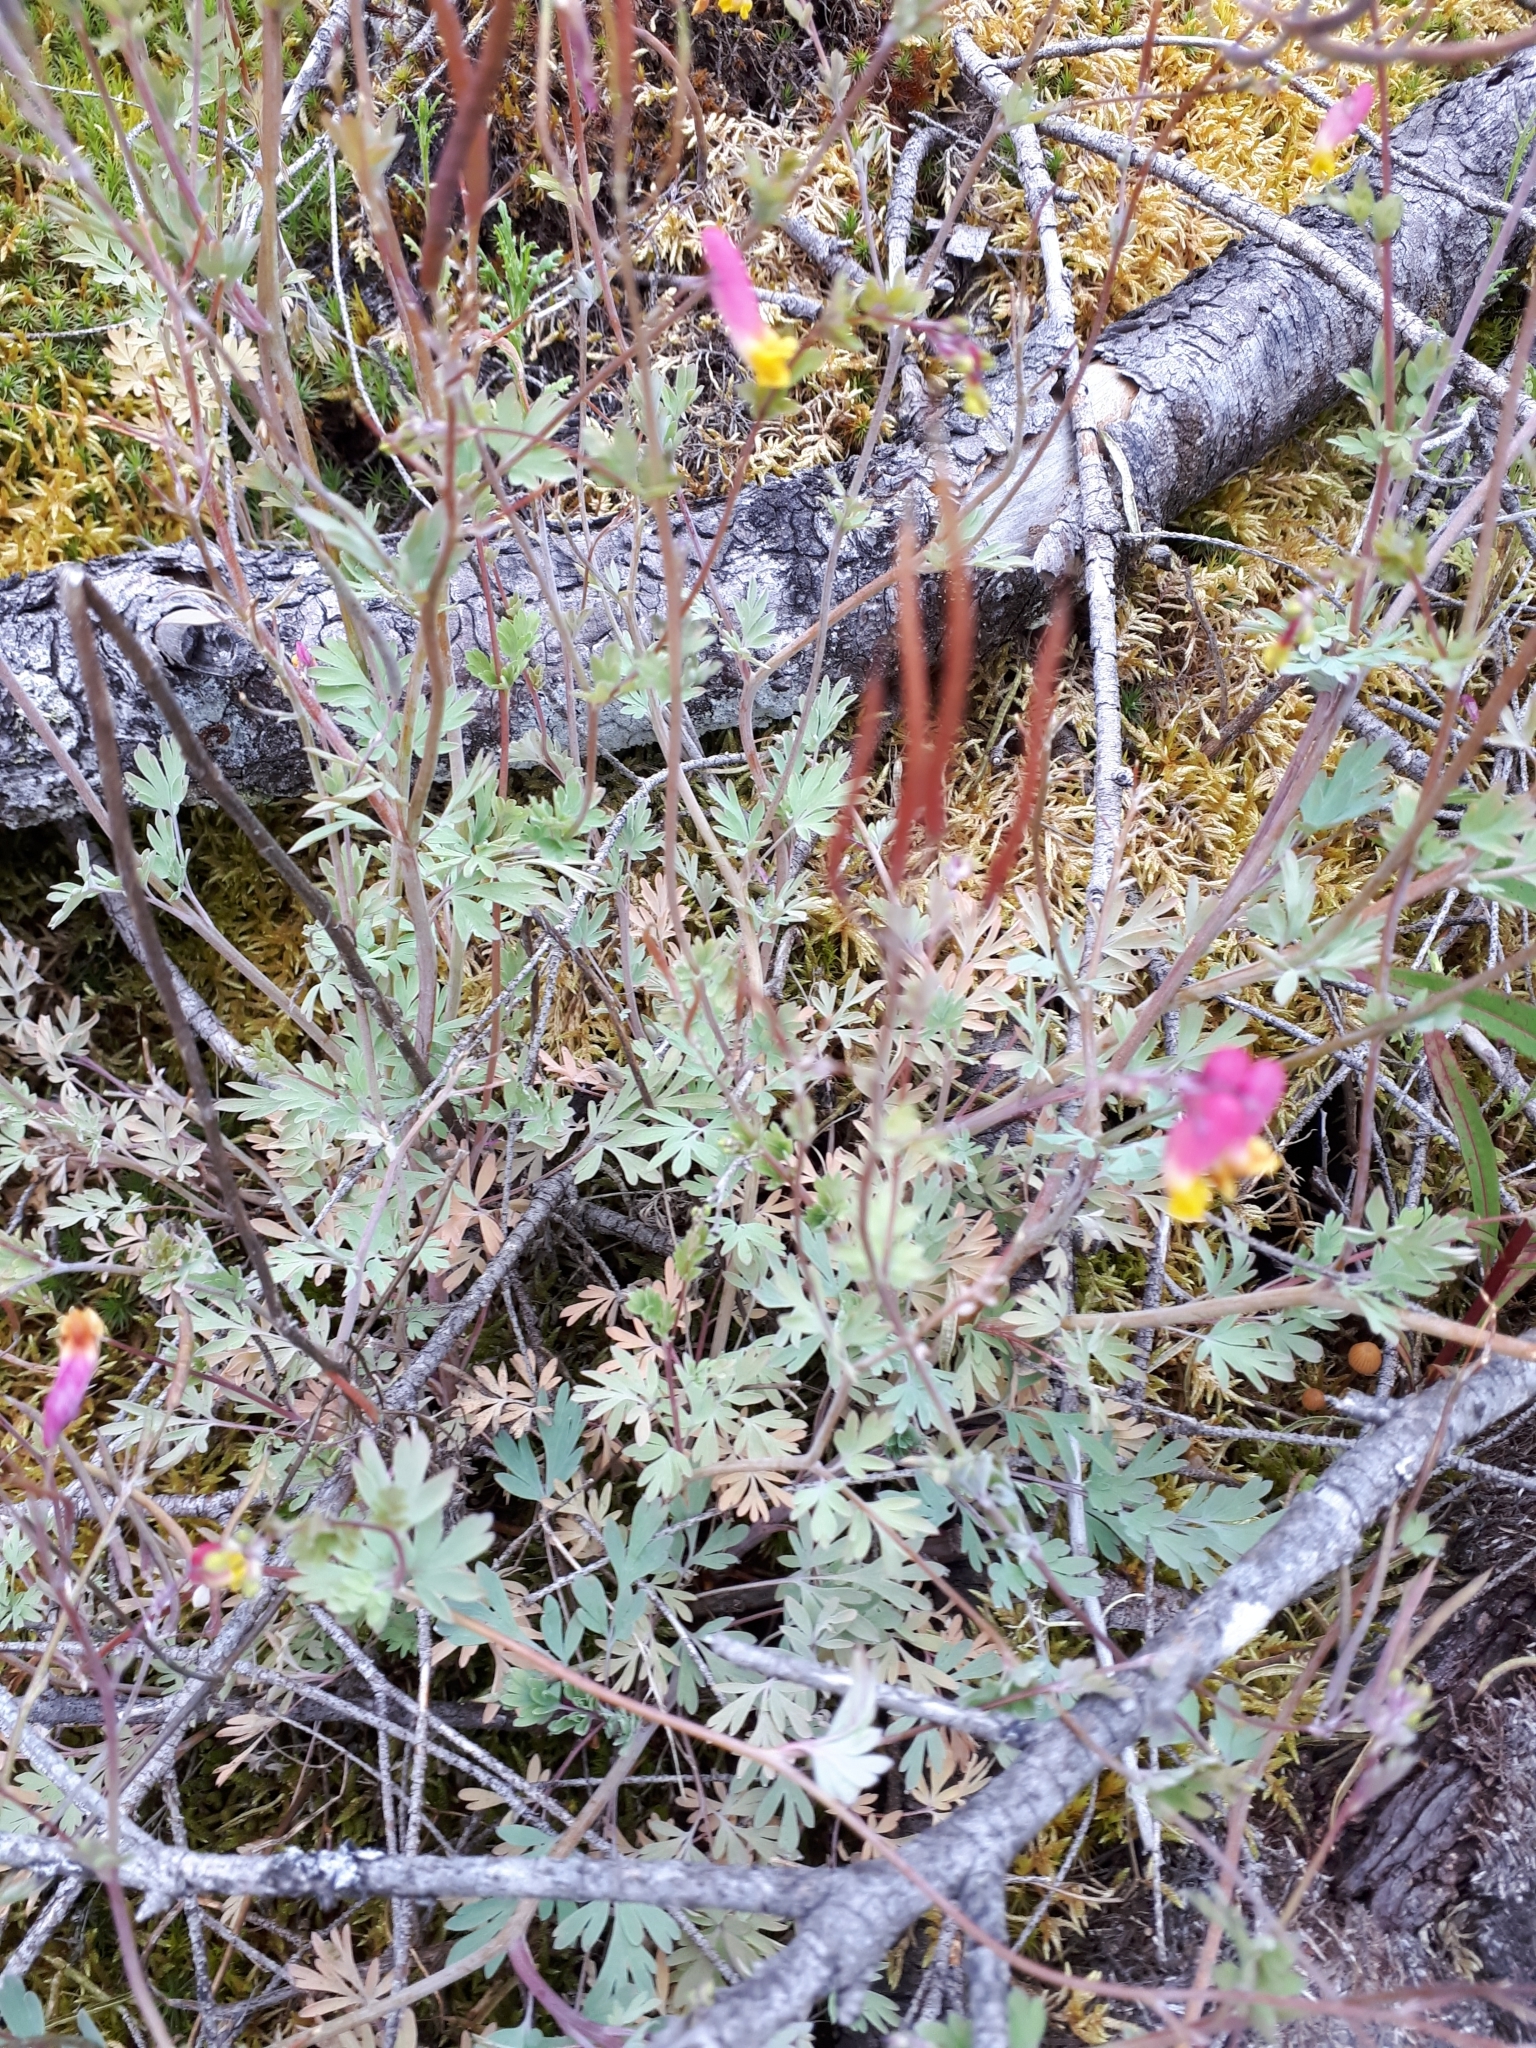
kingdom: Plantae
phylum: Tracheophyta
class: Magnoliopsida
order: Ranunculales
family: Papaveraceae
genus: Capnoides
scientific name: Capnoides sempervirens
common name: Rock harlequin
